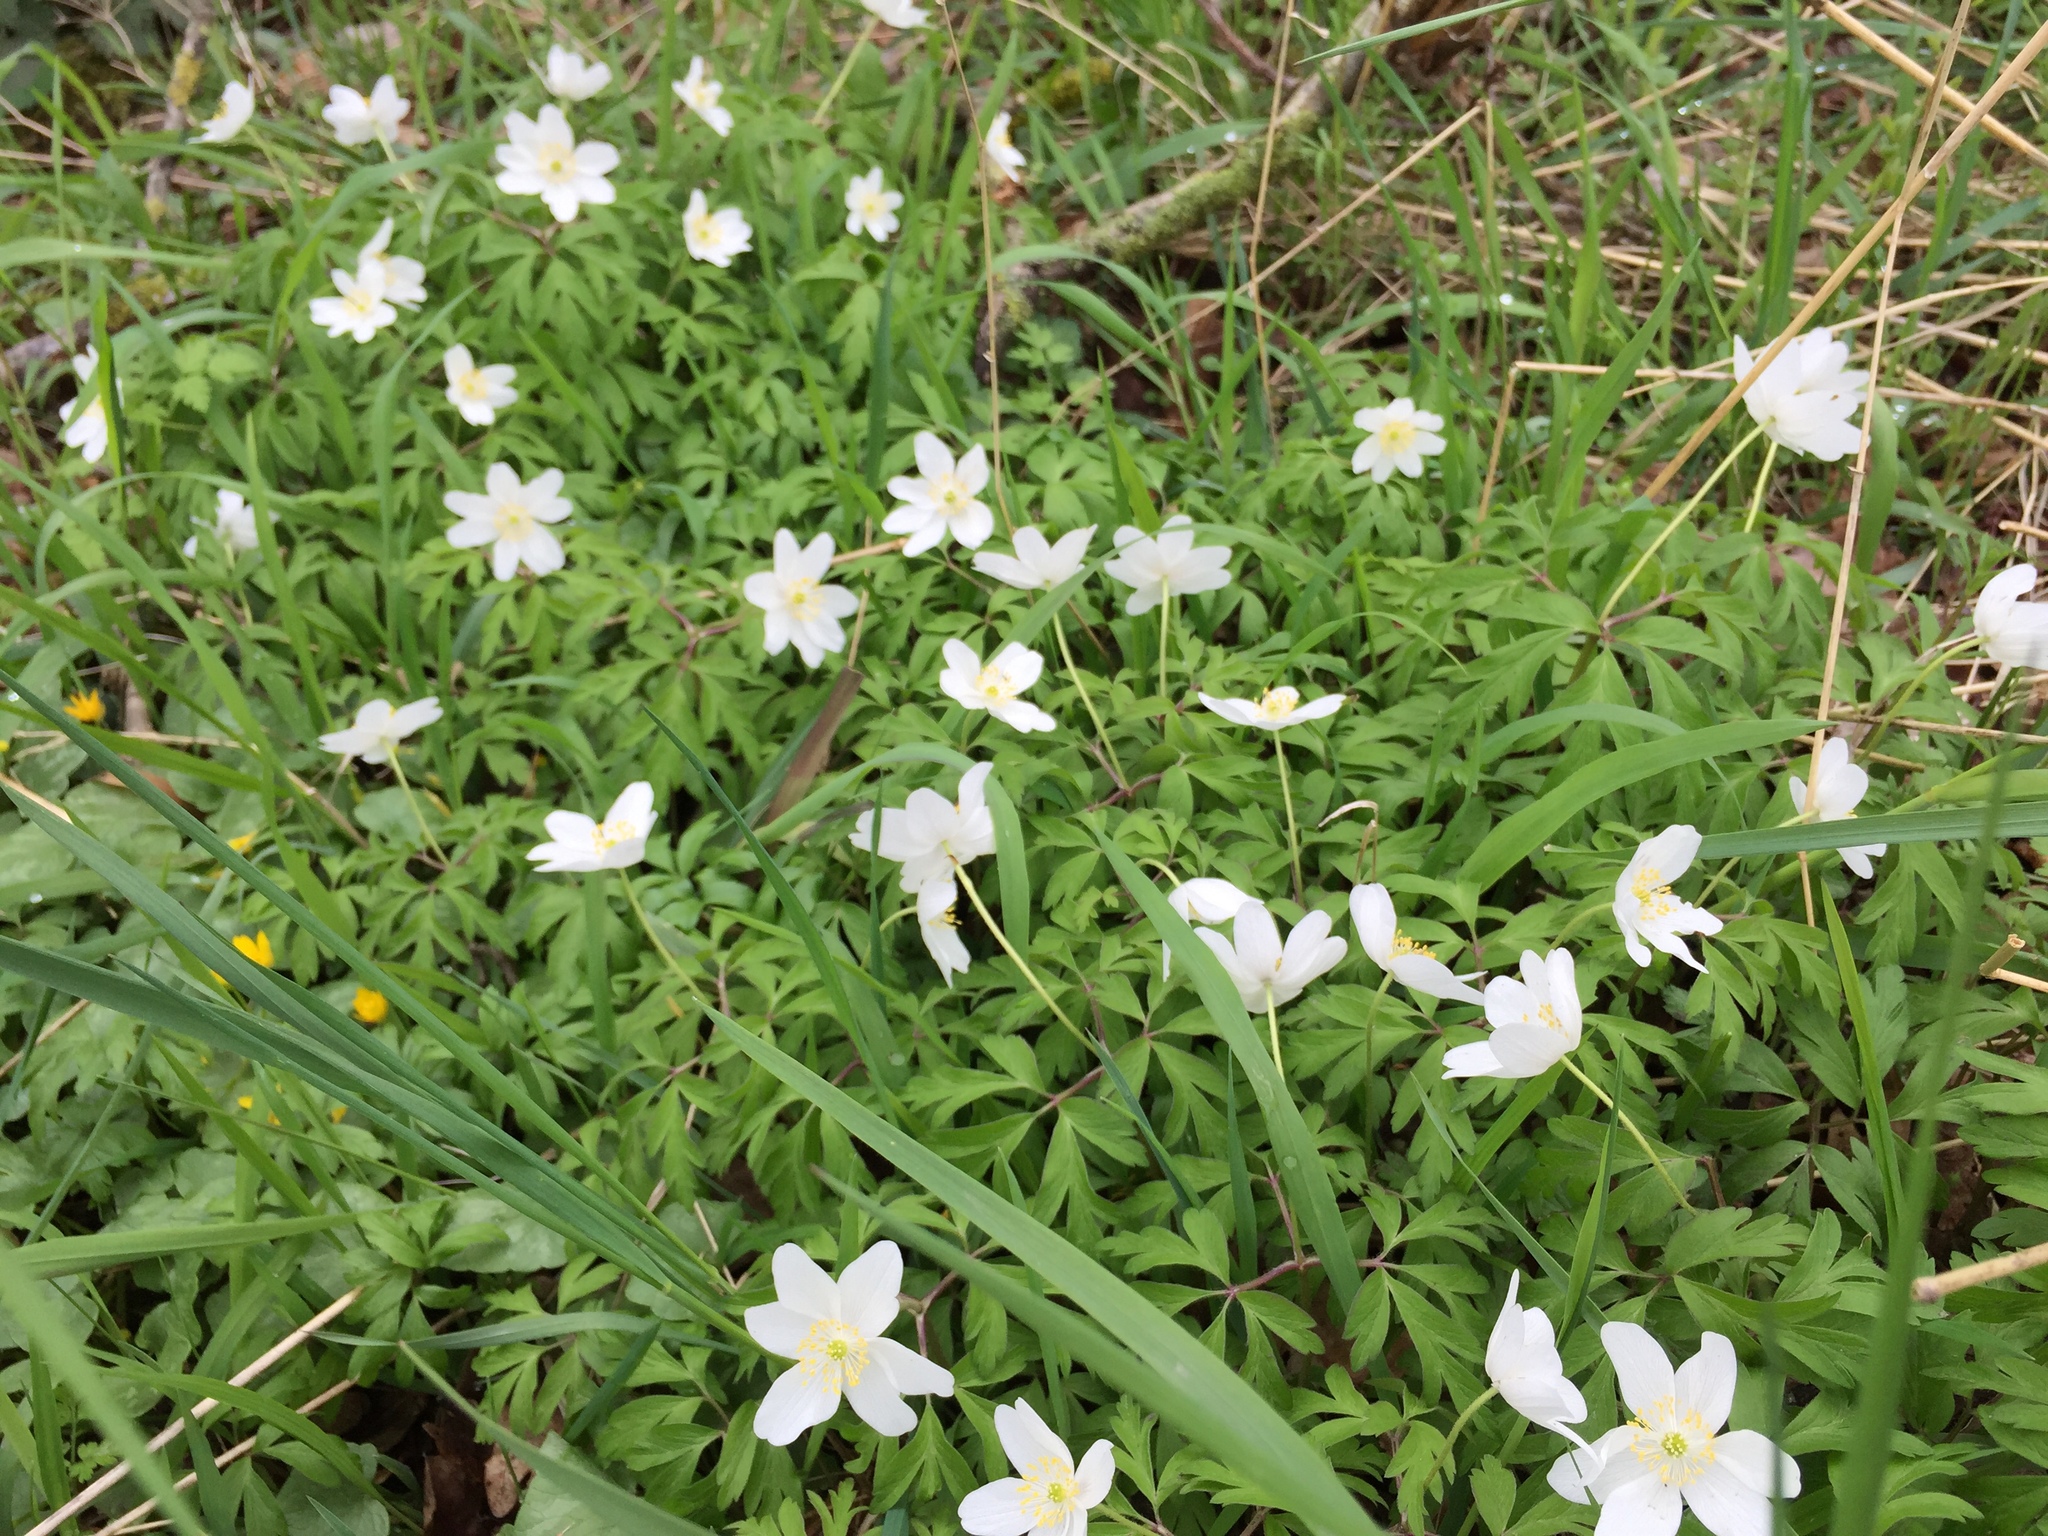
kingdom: Plantae
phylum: Tracheophyta
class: Magnoliopsida
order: Ranunculales
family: Ranunculaceae
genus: Anemone
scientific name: Anemone nemorosa
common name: Wood anemone
